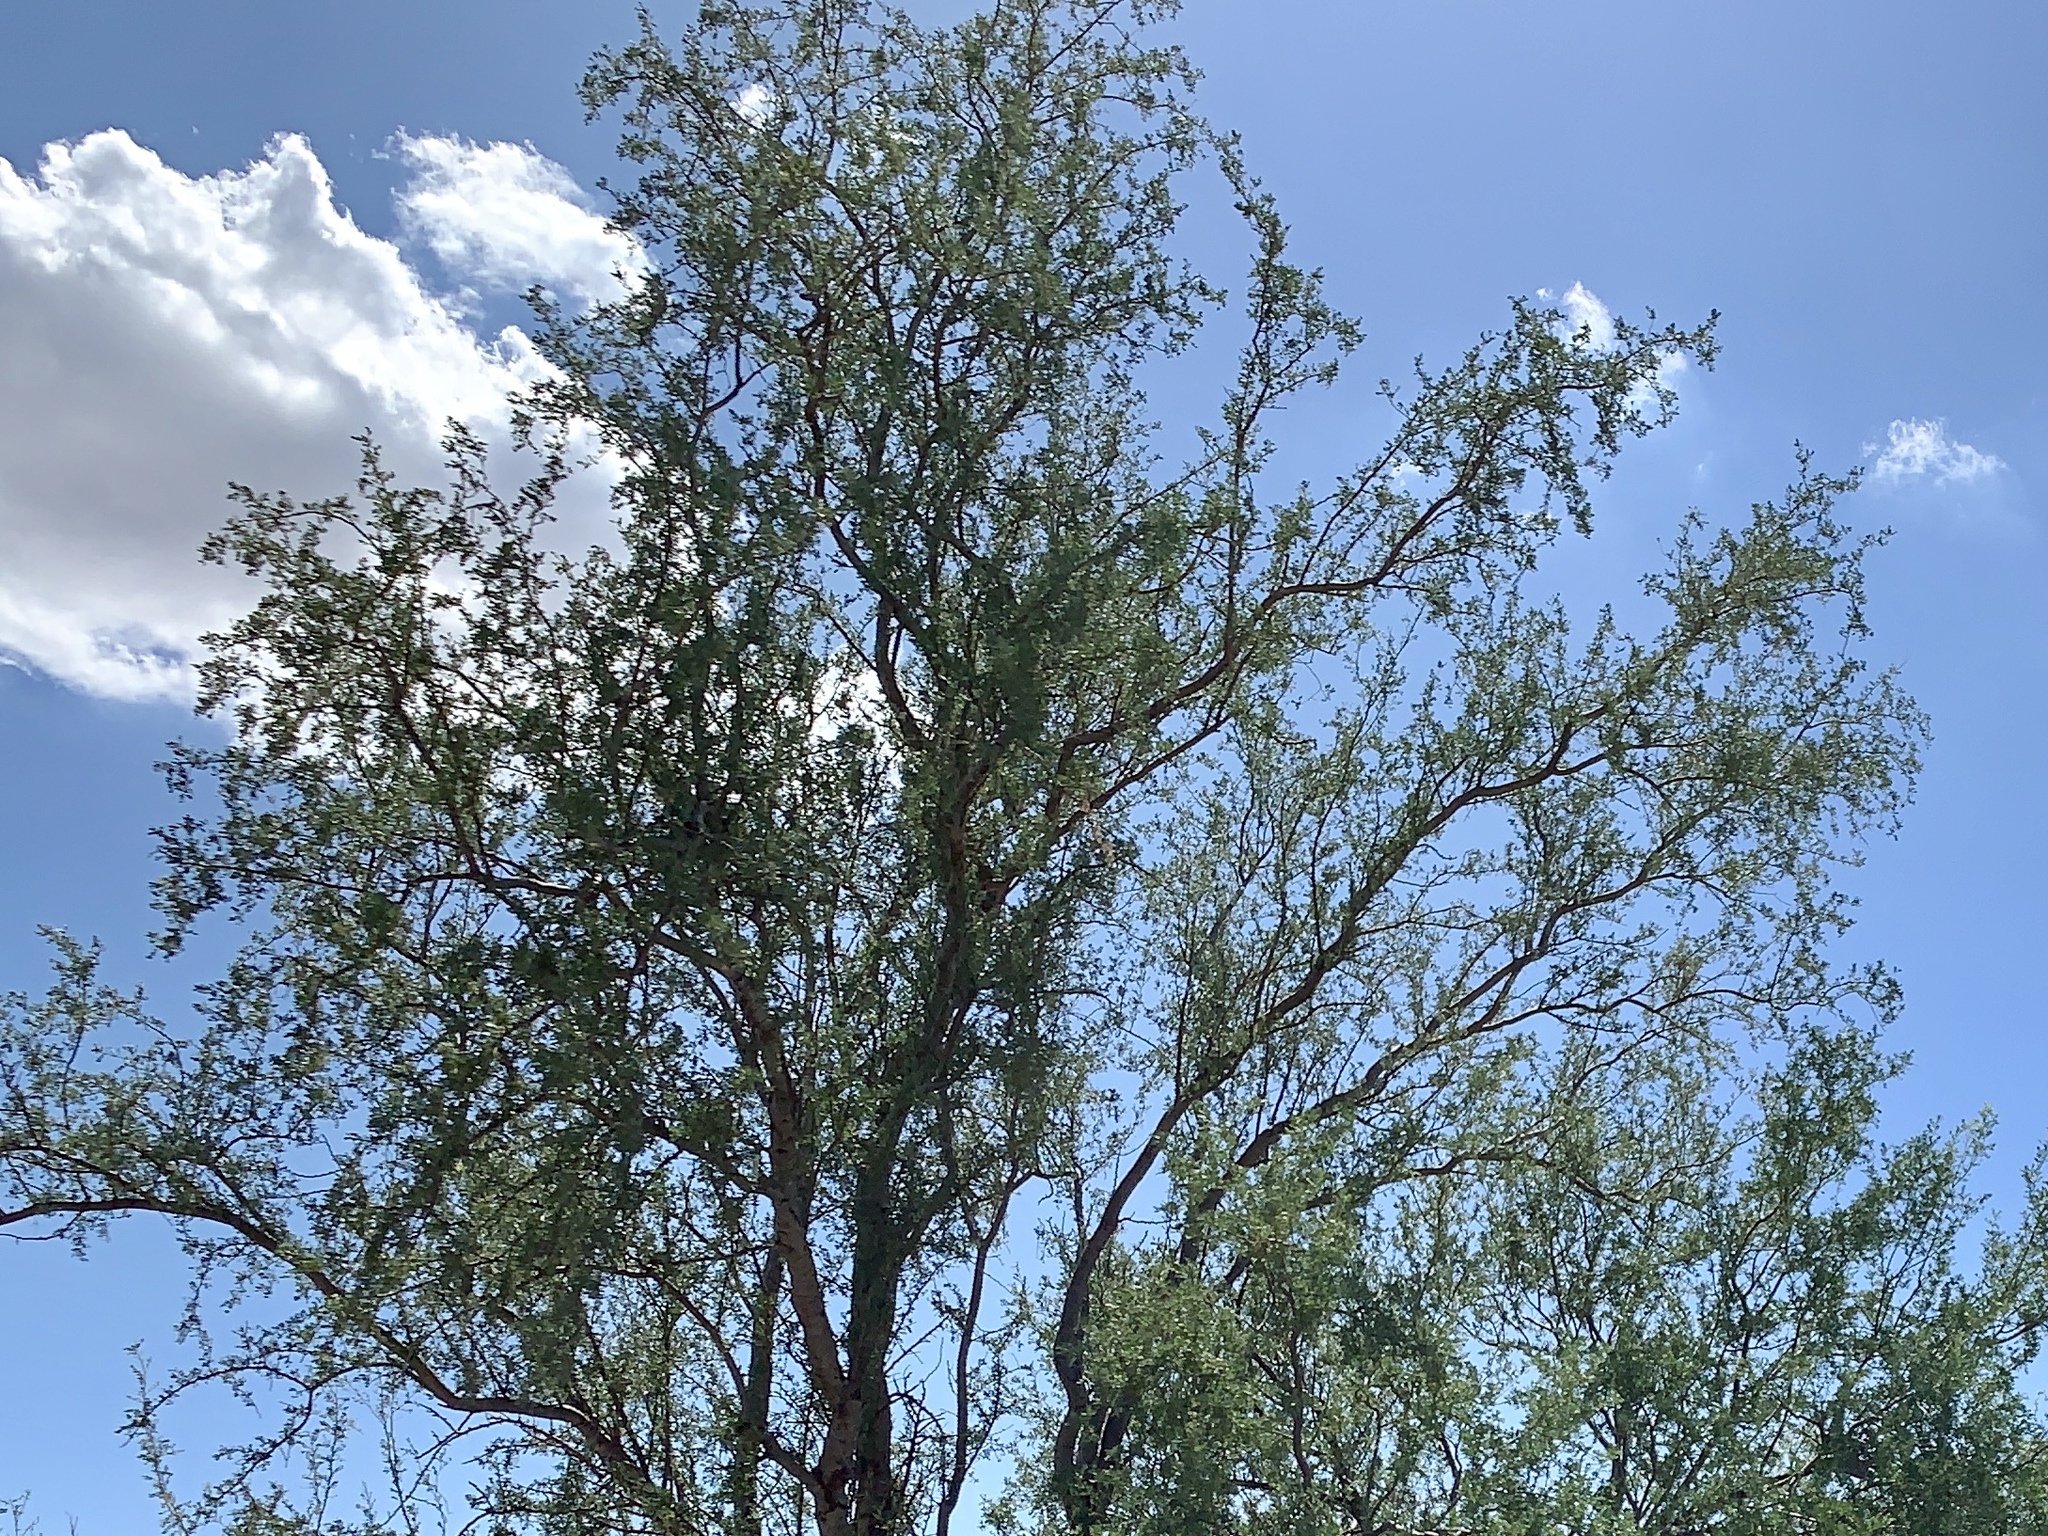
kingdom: Plantae
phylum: Tracheophyta
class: Magnoliopsida
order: Fabales
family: Fabaceae
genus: Olneya
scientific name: Olneya tesota
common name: Desert ironwood
